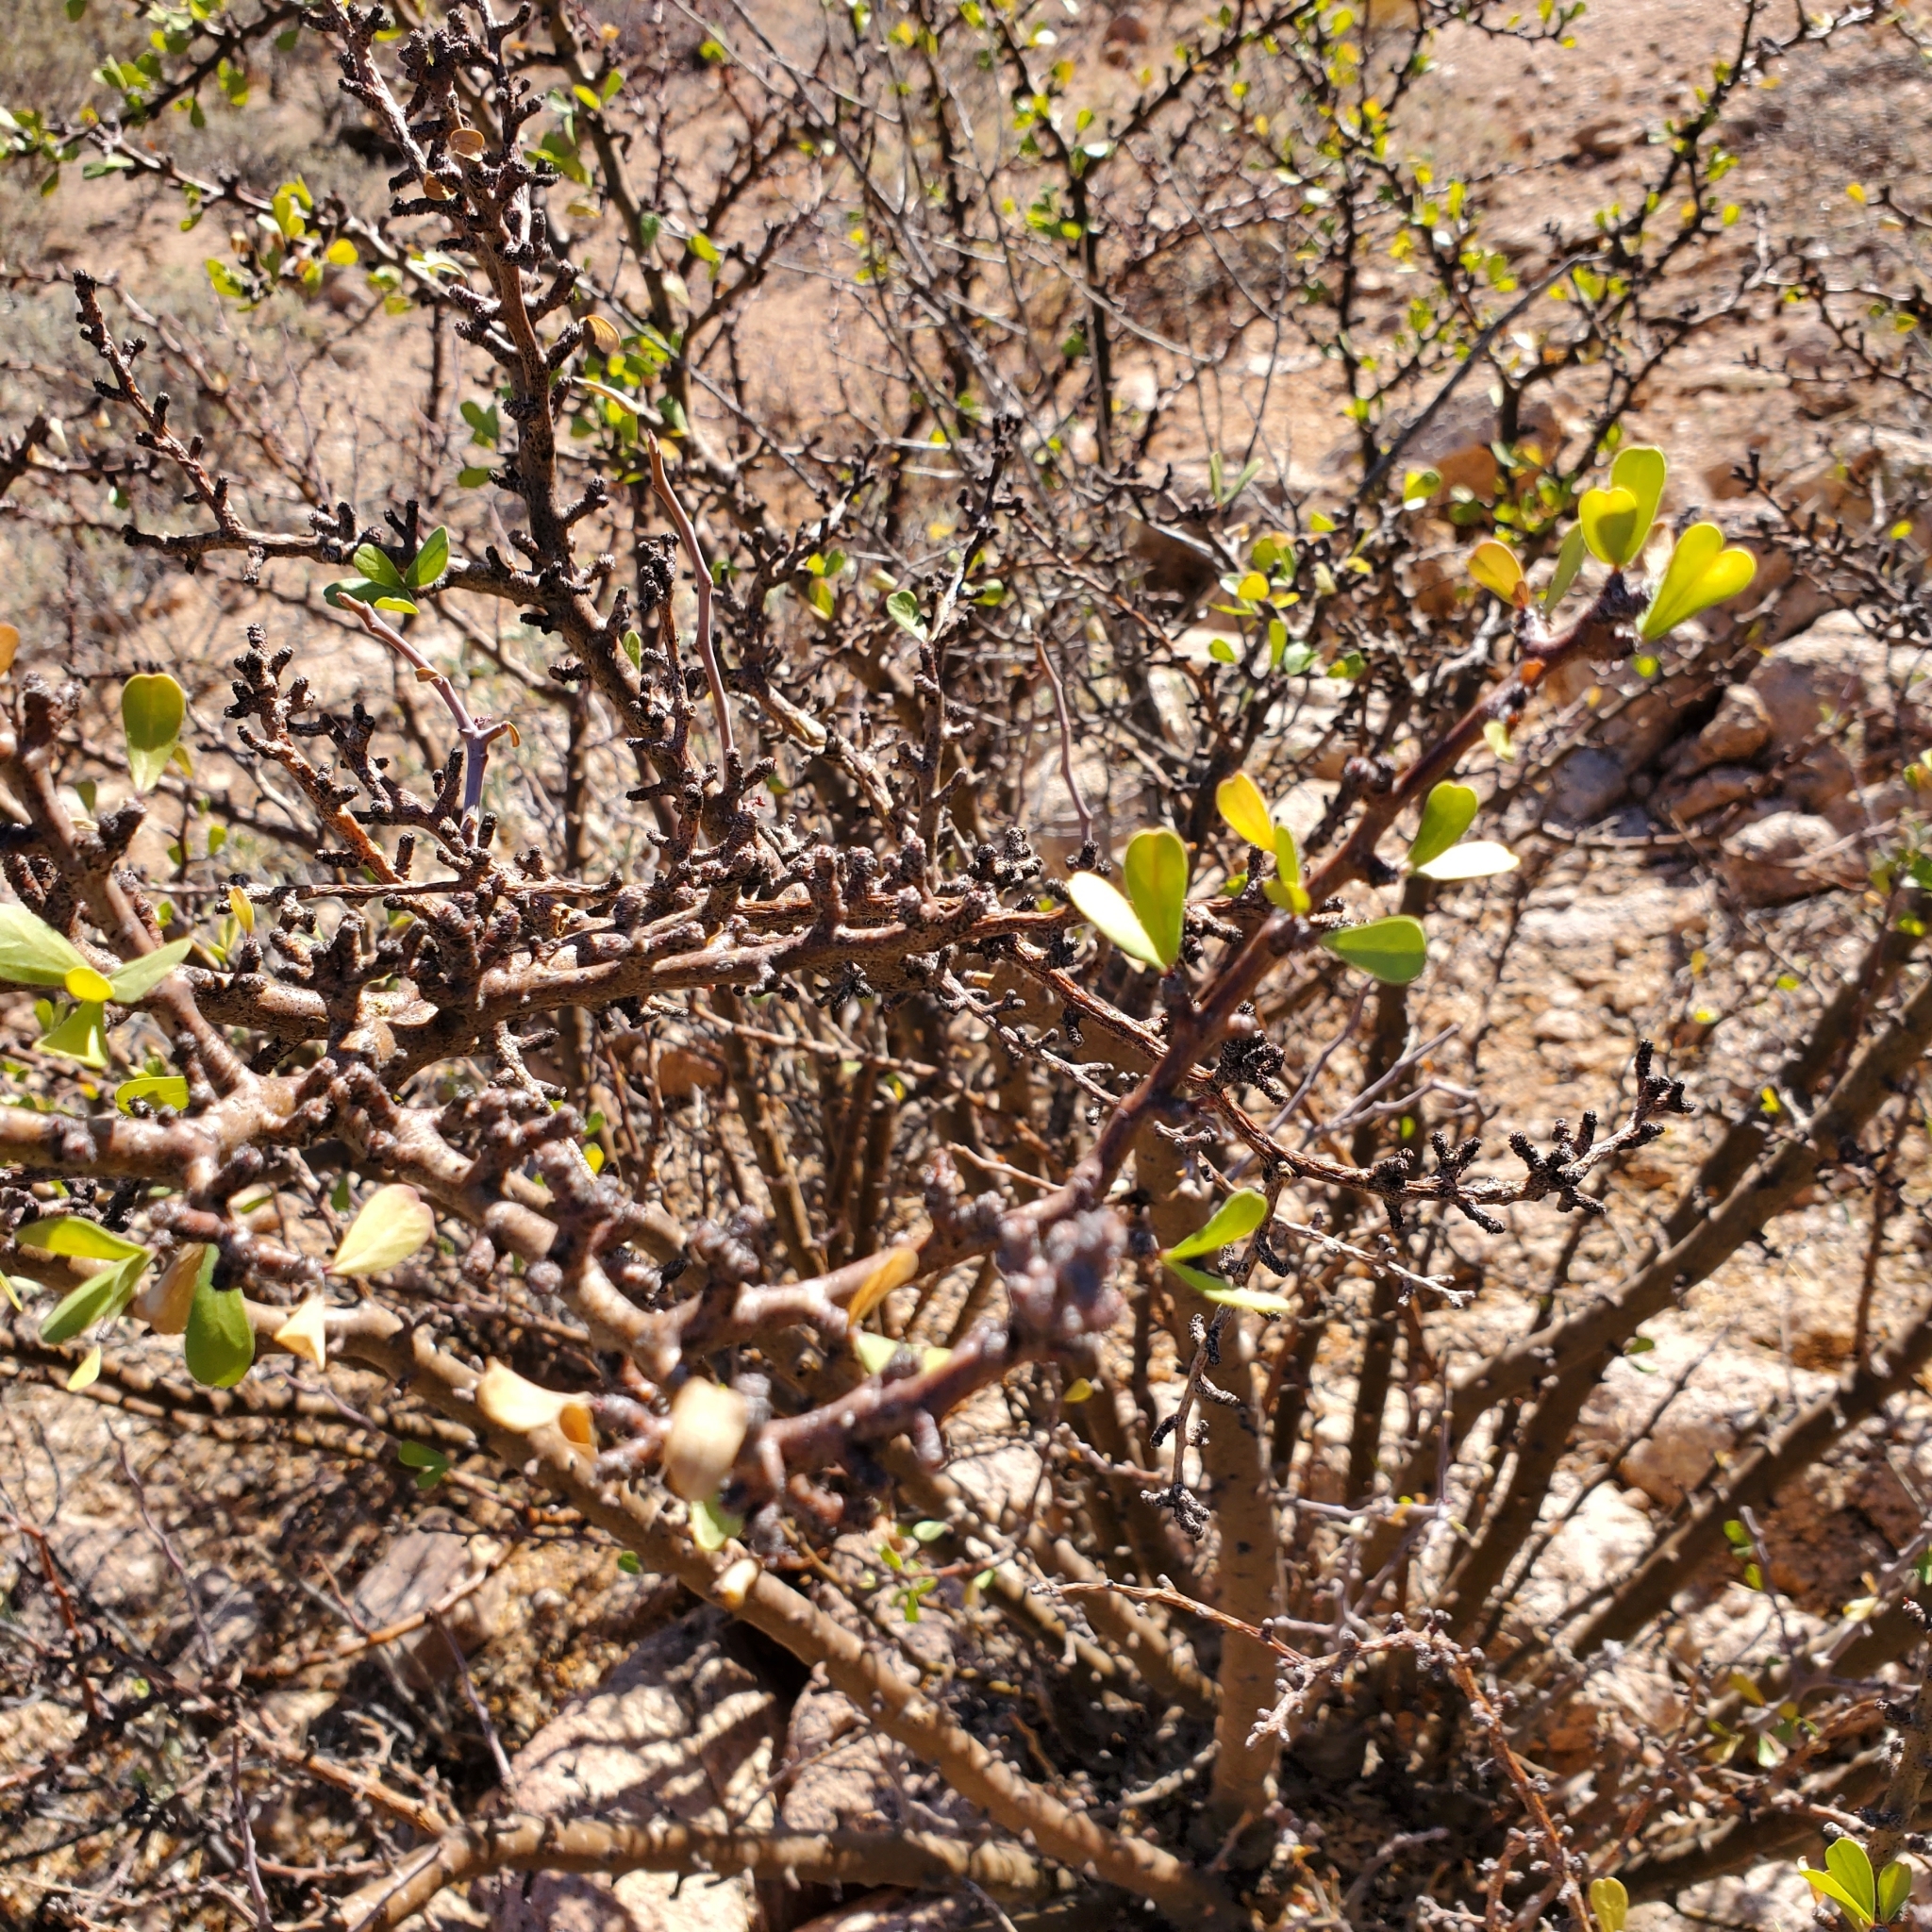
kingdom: Plantae
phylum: Tracheophyta
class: Magnoliopsida
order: Malpighiales
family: Euphorbiaceae
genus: Jatropha
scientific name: Jatropha cuneata
